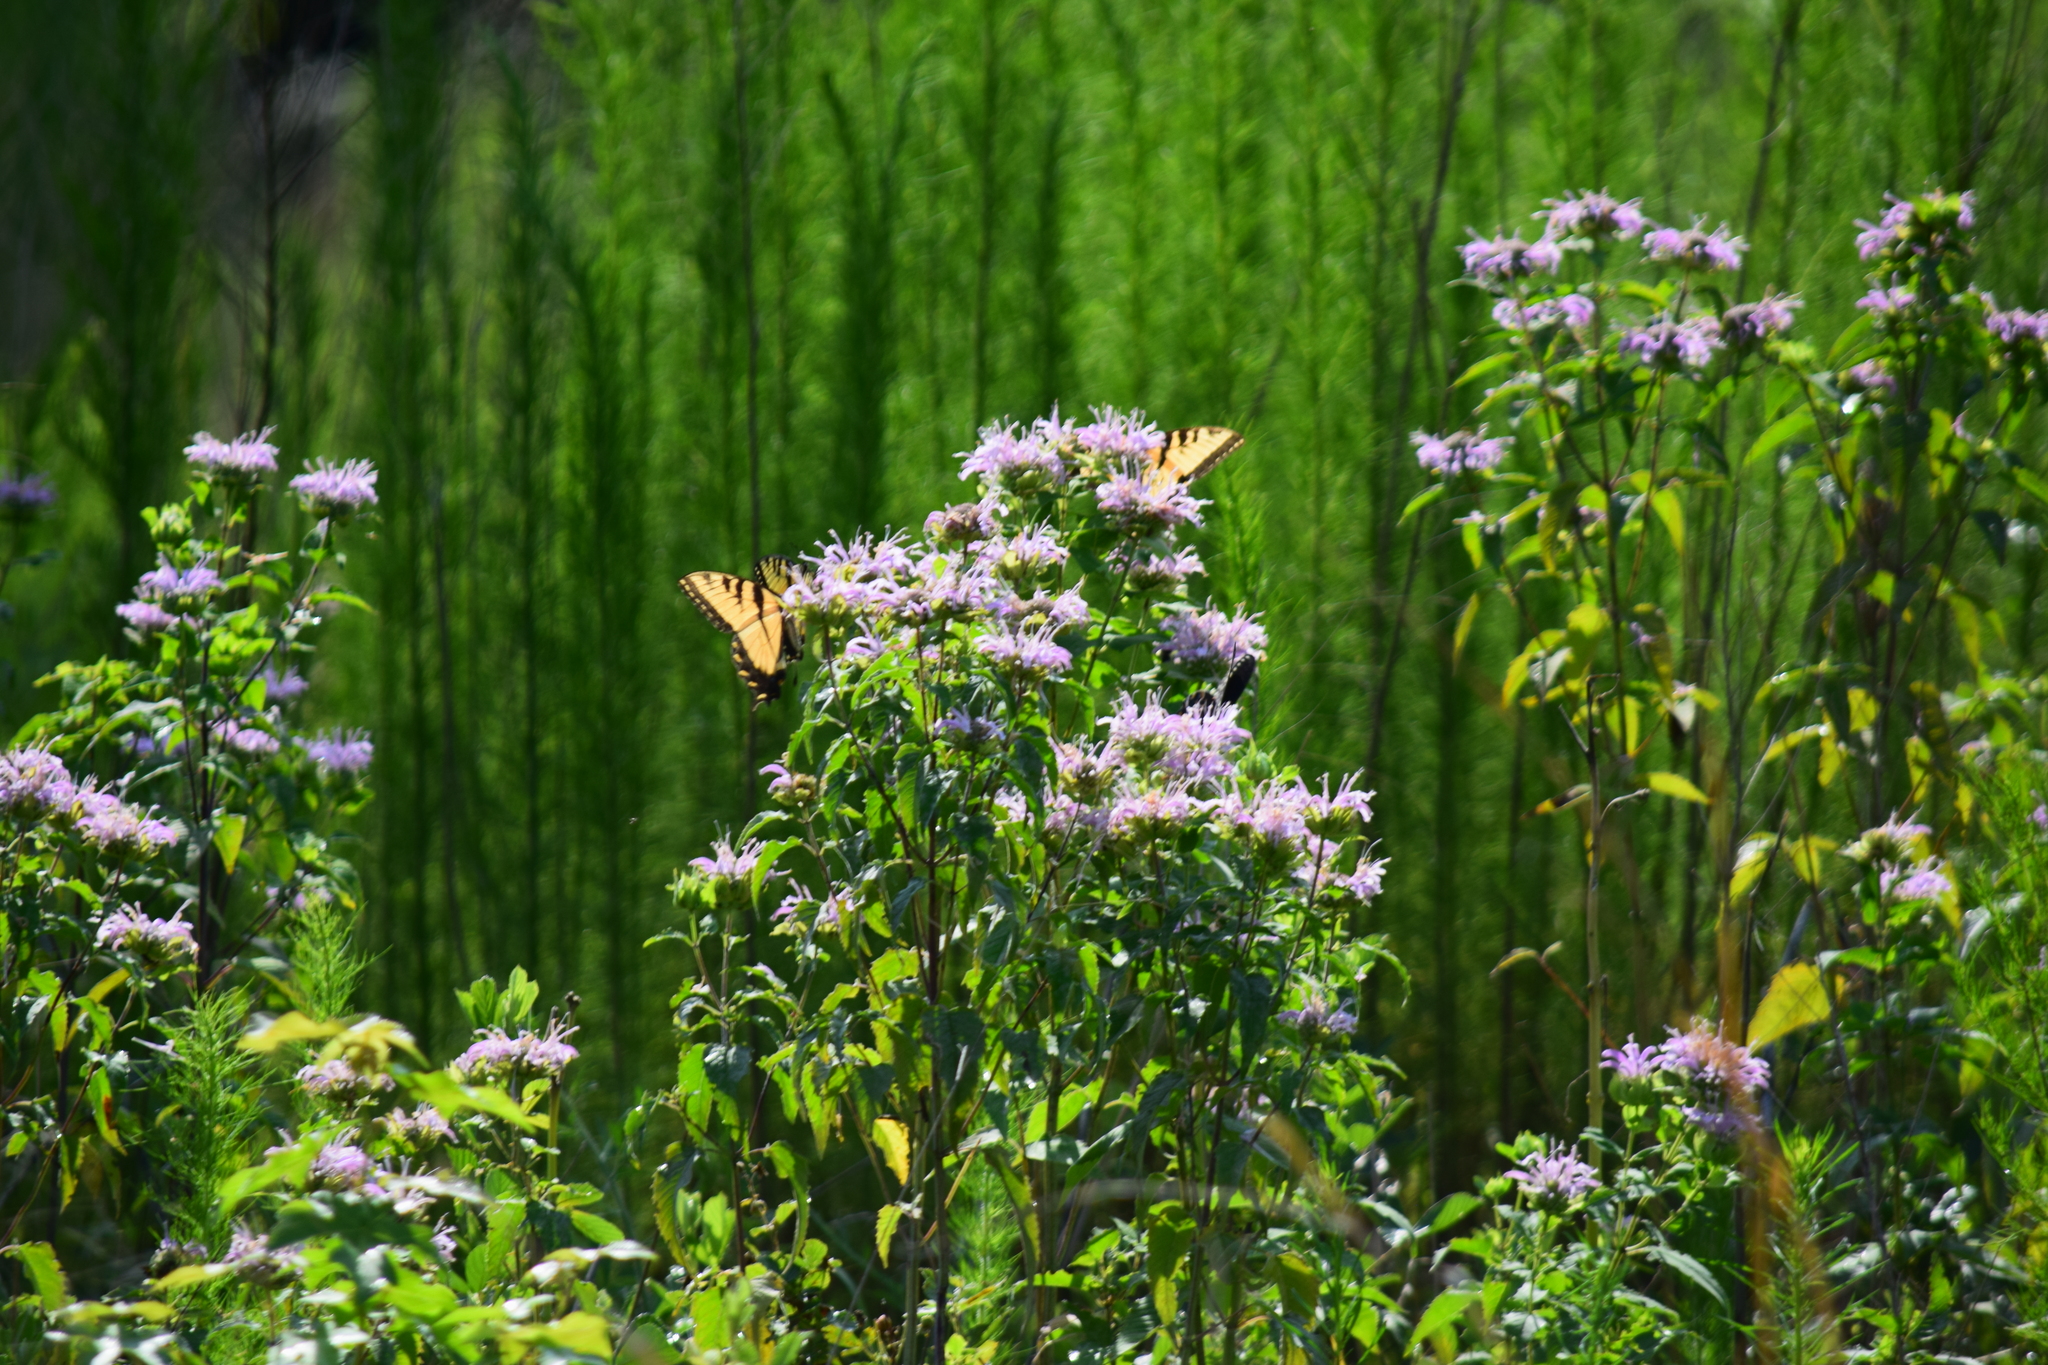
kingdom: Animalia
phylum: Arthropoda
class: Insecta
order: Lepidoptera
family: Papilionidae
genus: Papilio
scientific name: Papilio glaucus
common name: Tiger swallowtail
